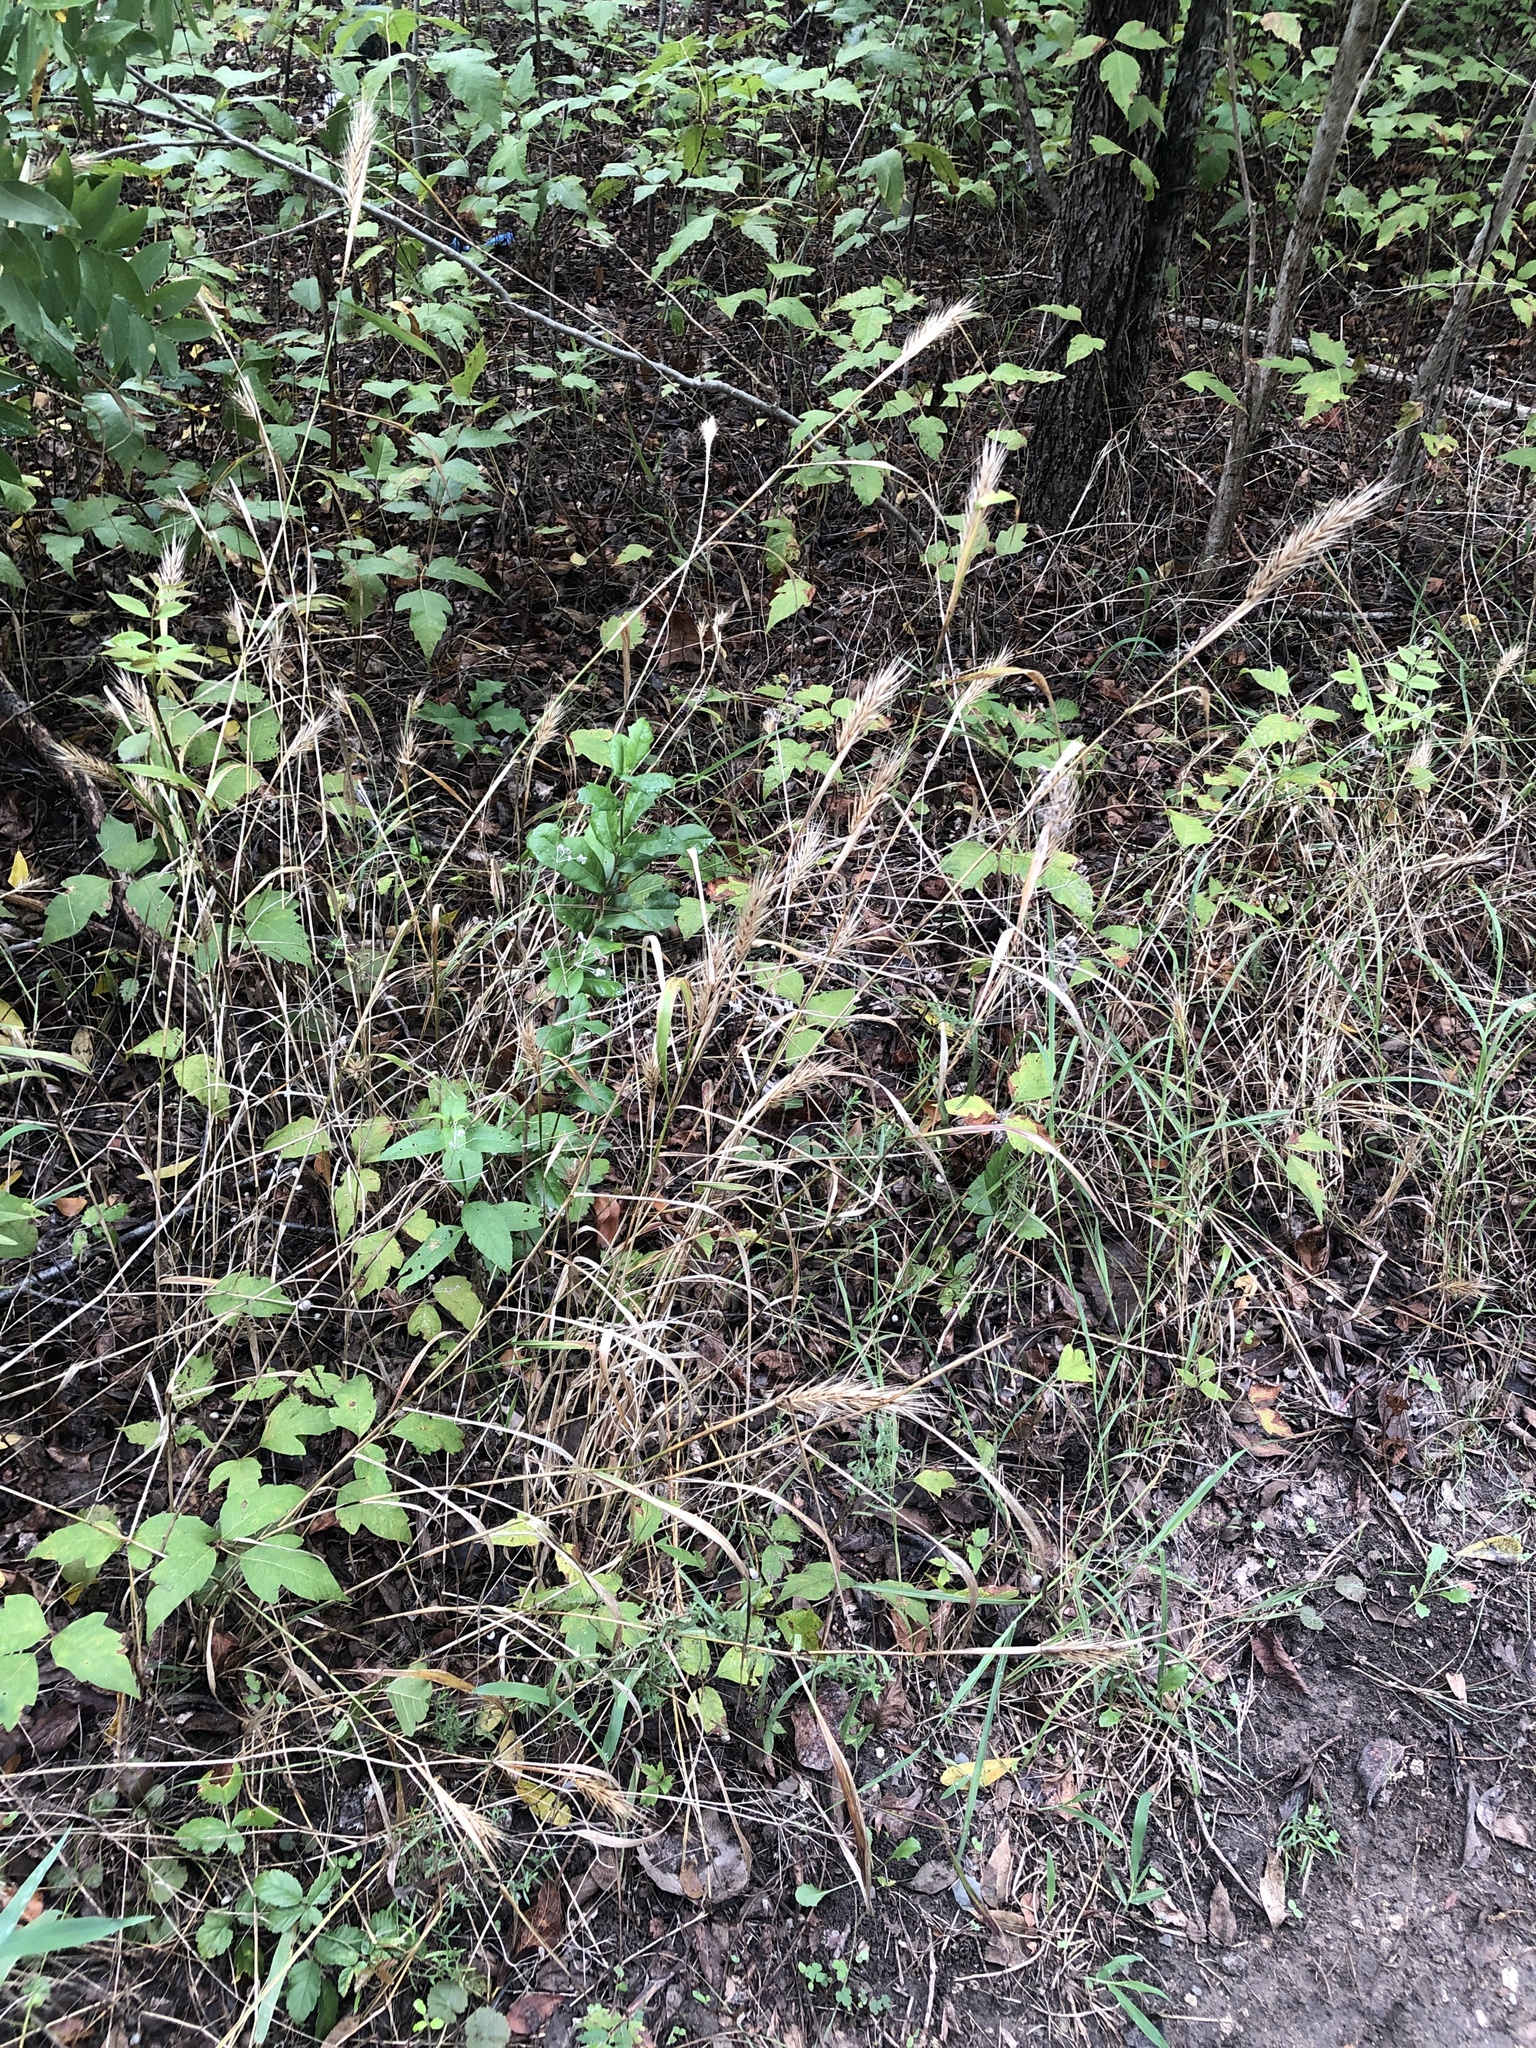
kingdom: Plantae
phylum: Tracheophyta
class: Liliopsida
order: Poales
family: Poaceae
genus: Elymus
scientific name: Elymus virginicus
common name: Common eastern wildrye
